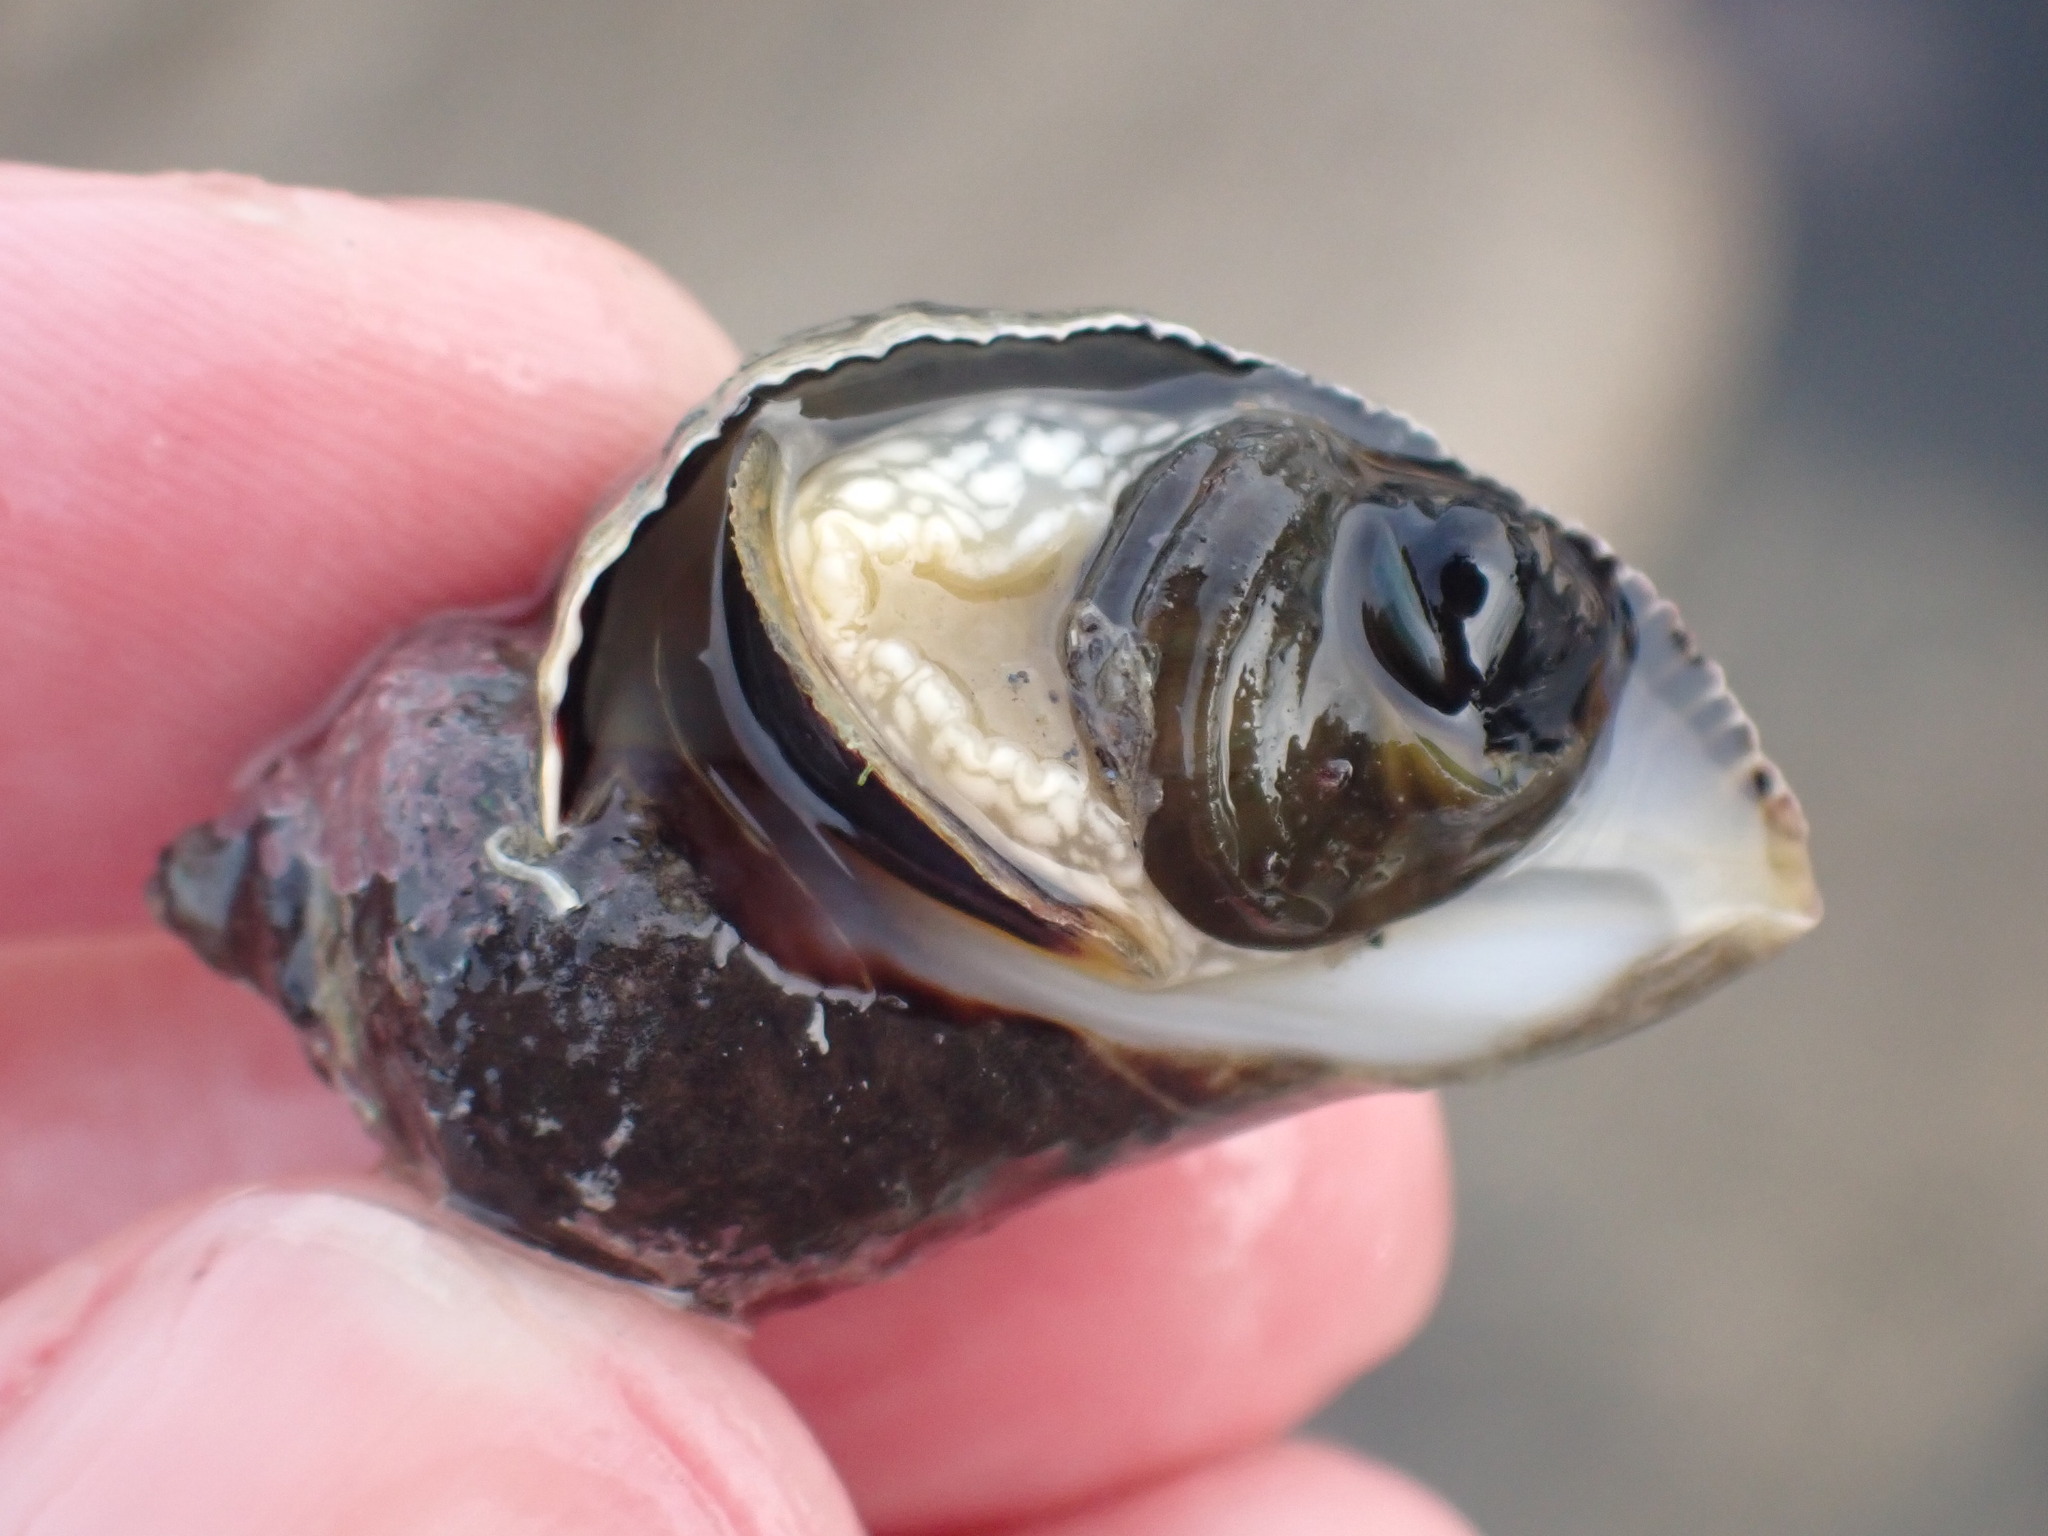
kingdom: Animalia
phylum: Mollusca
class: Gastropoda
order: Neogastropoda
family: Muricidae
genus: Haustrum
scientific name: Haustrum haustorium
